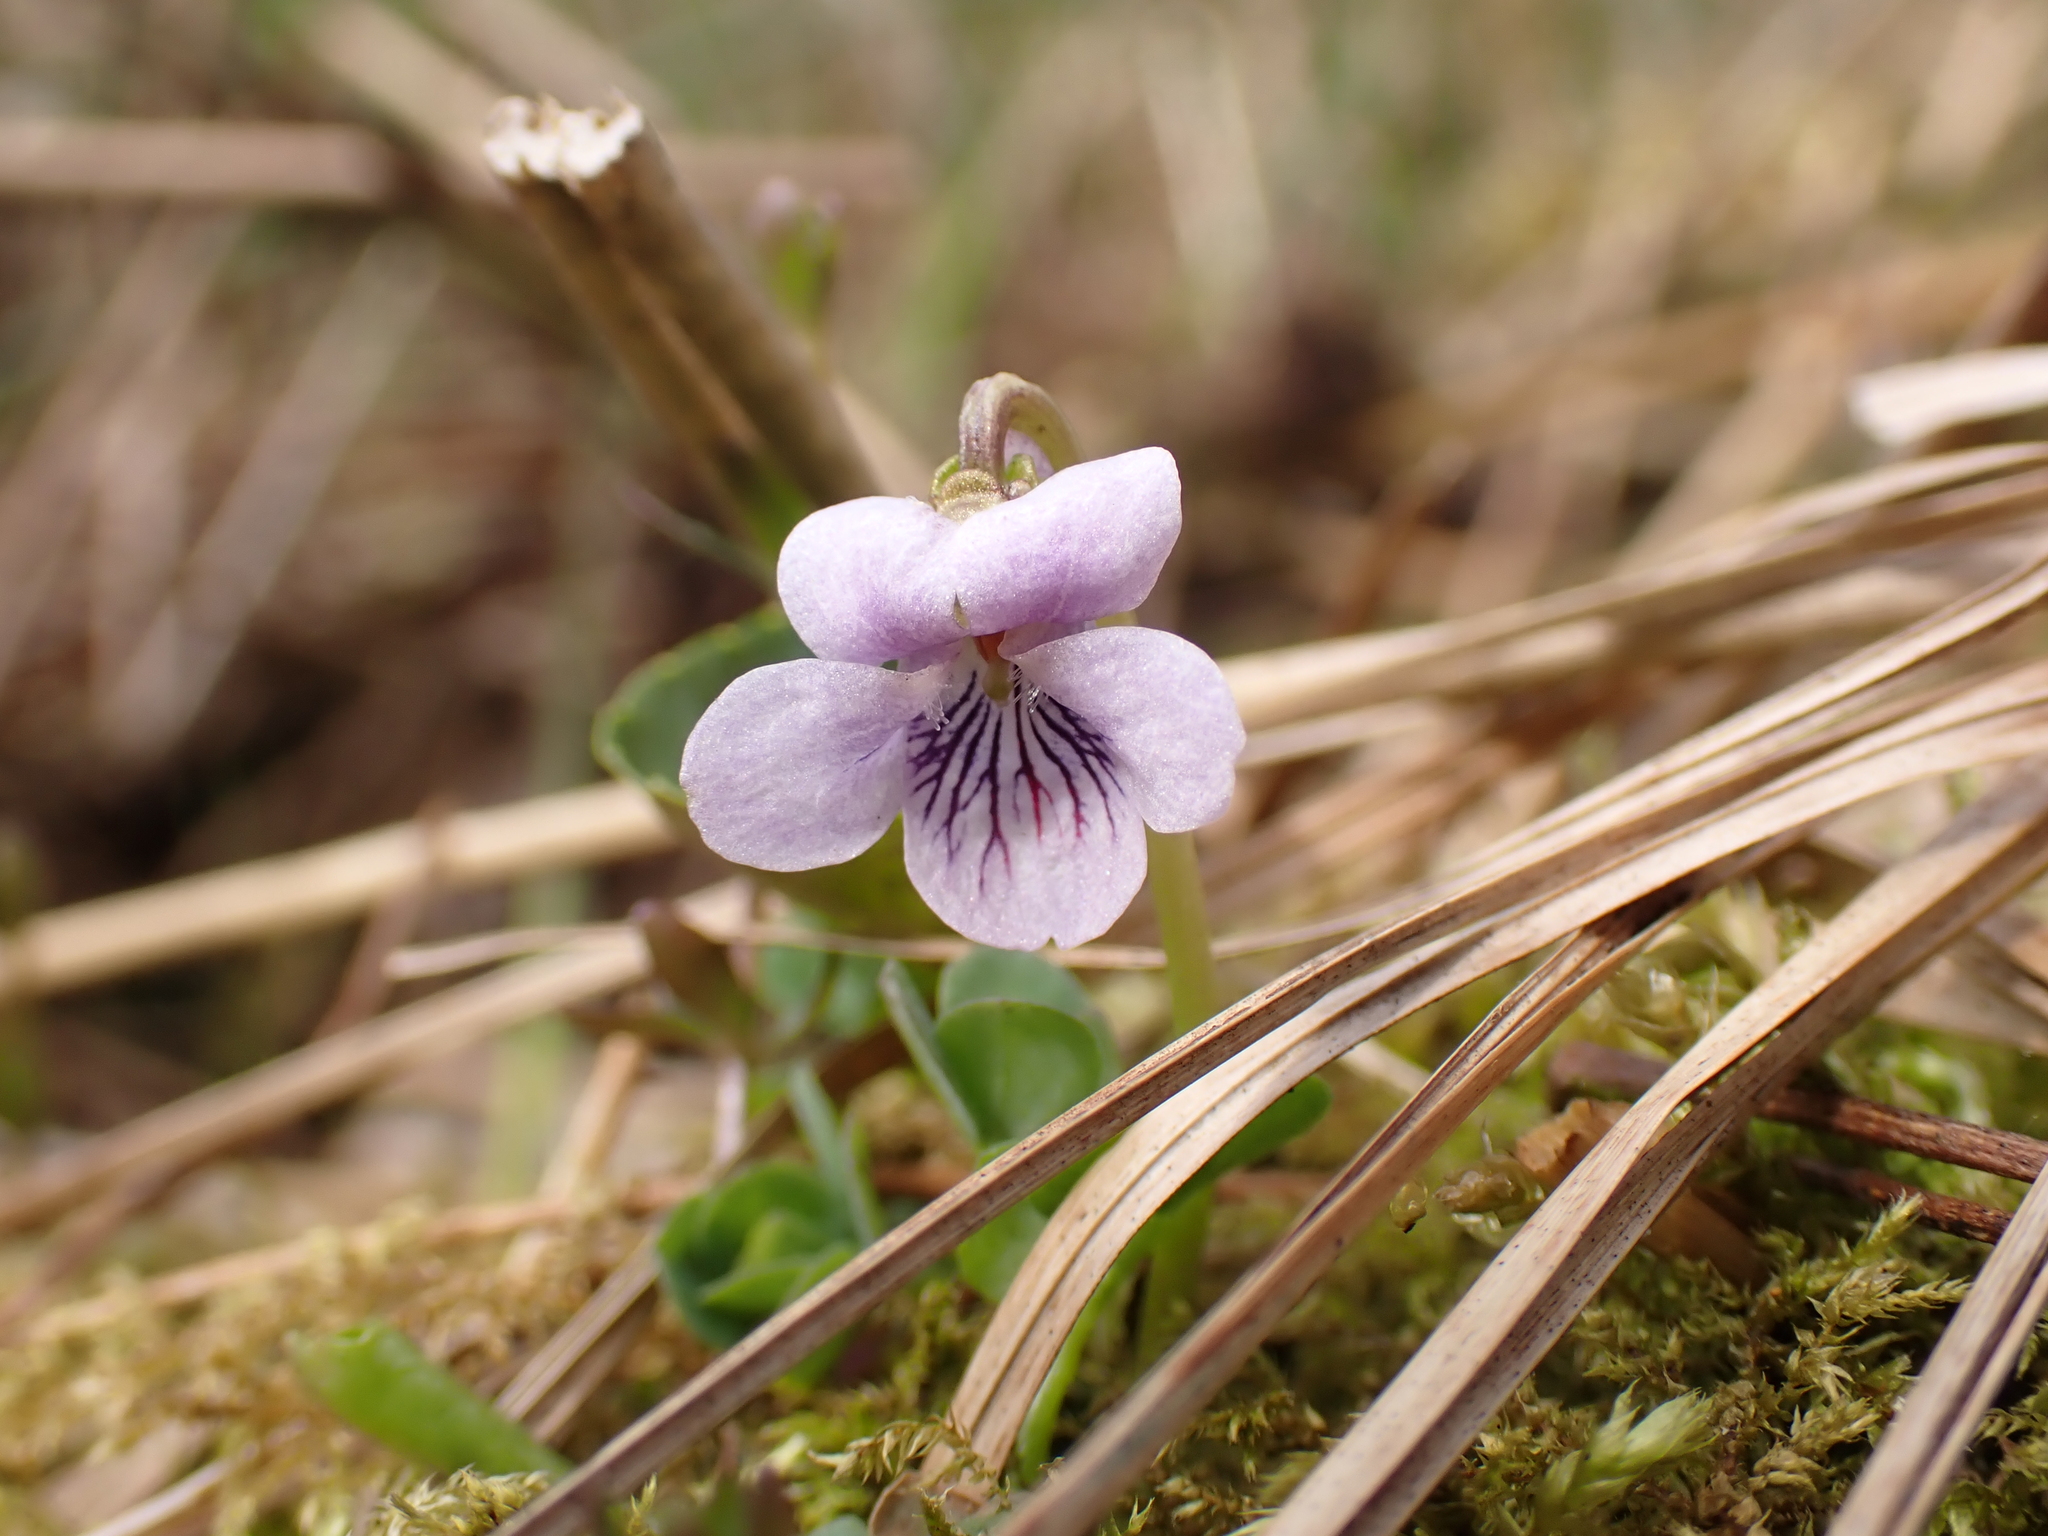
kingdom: Plantae
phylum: Tracheophyta
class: Magnoliopsida
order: Malpighiales
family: Violaceae
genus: Viola
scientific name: Viola palustris
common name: Marsh violet
